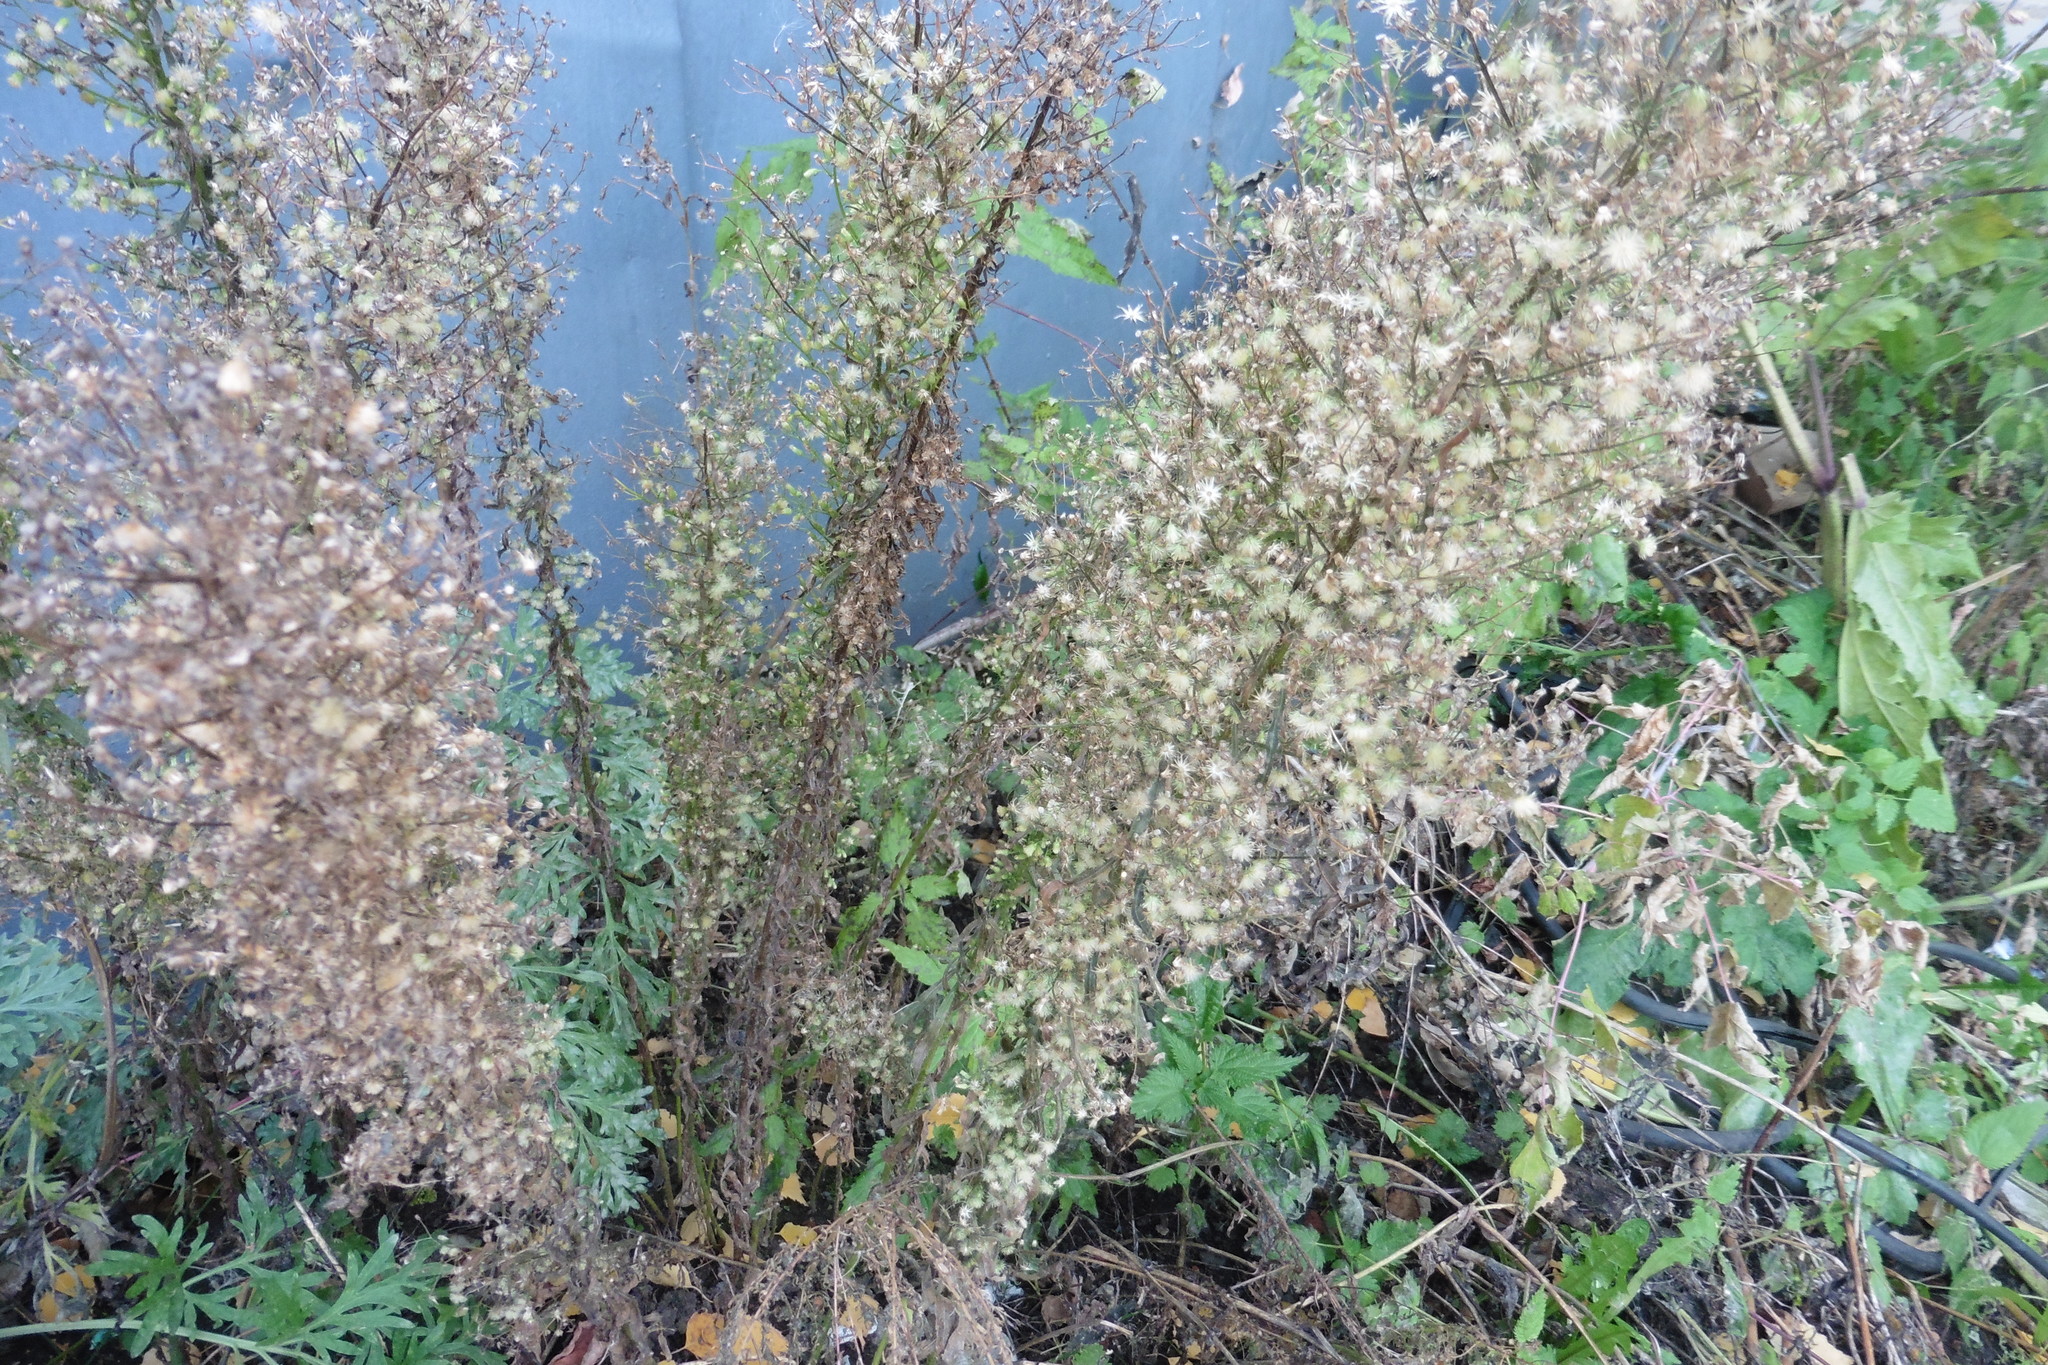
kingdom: Plantae
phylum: Tracheophyta
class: Magnoliopsida
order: Asterales
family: Asteraceae
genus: Erigeron
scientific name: Erigeron canadensis
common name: Canadian fleabane
